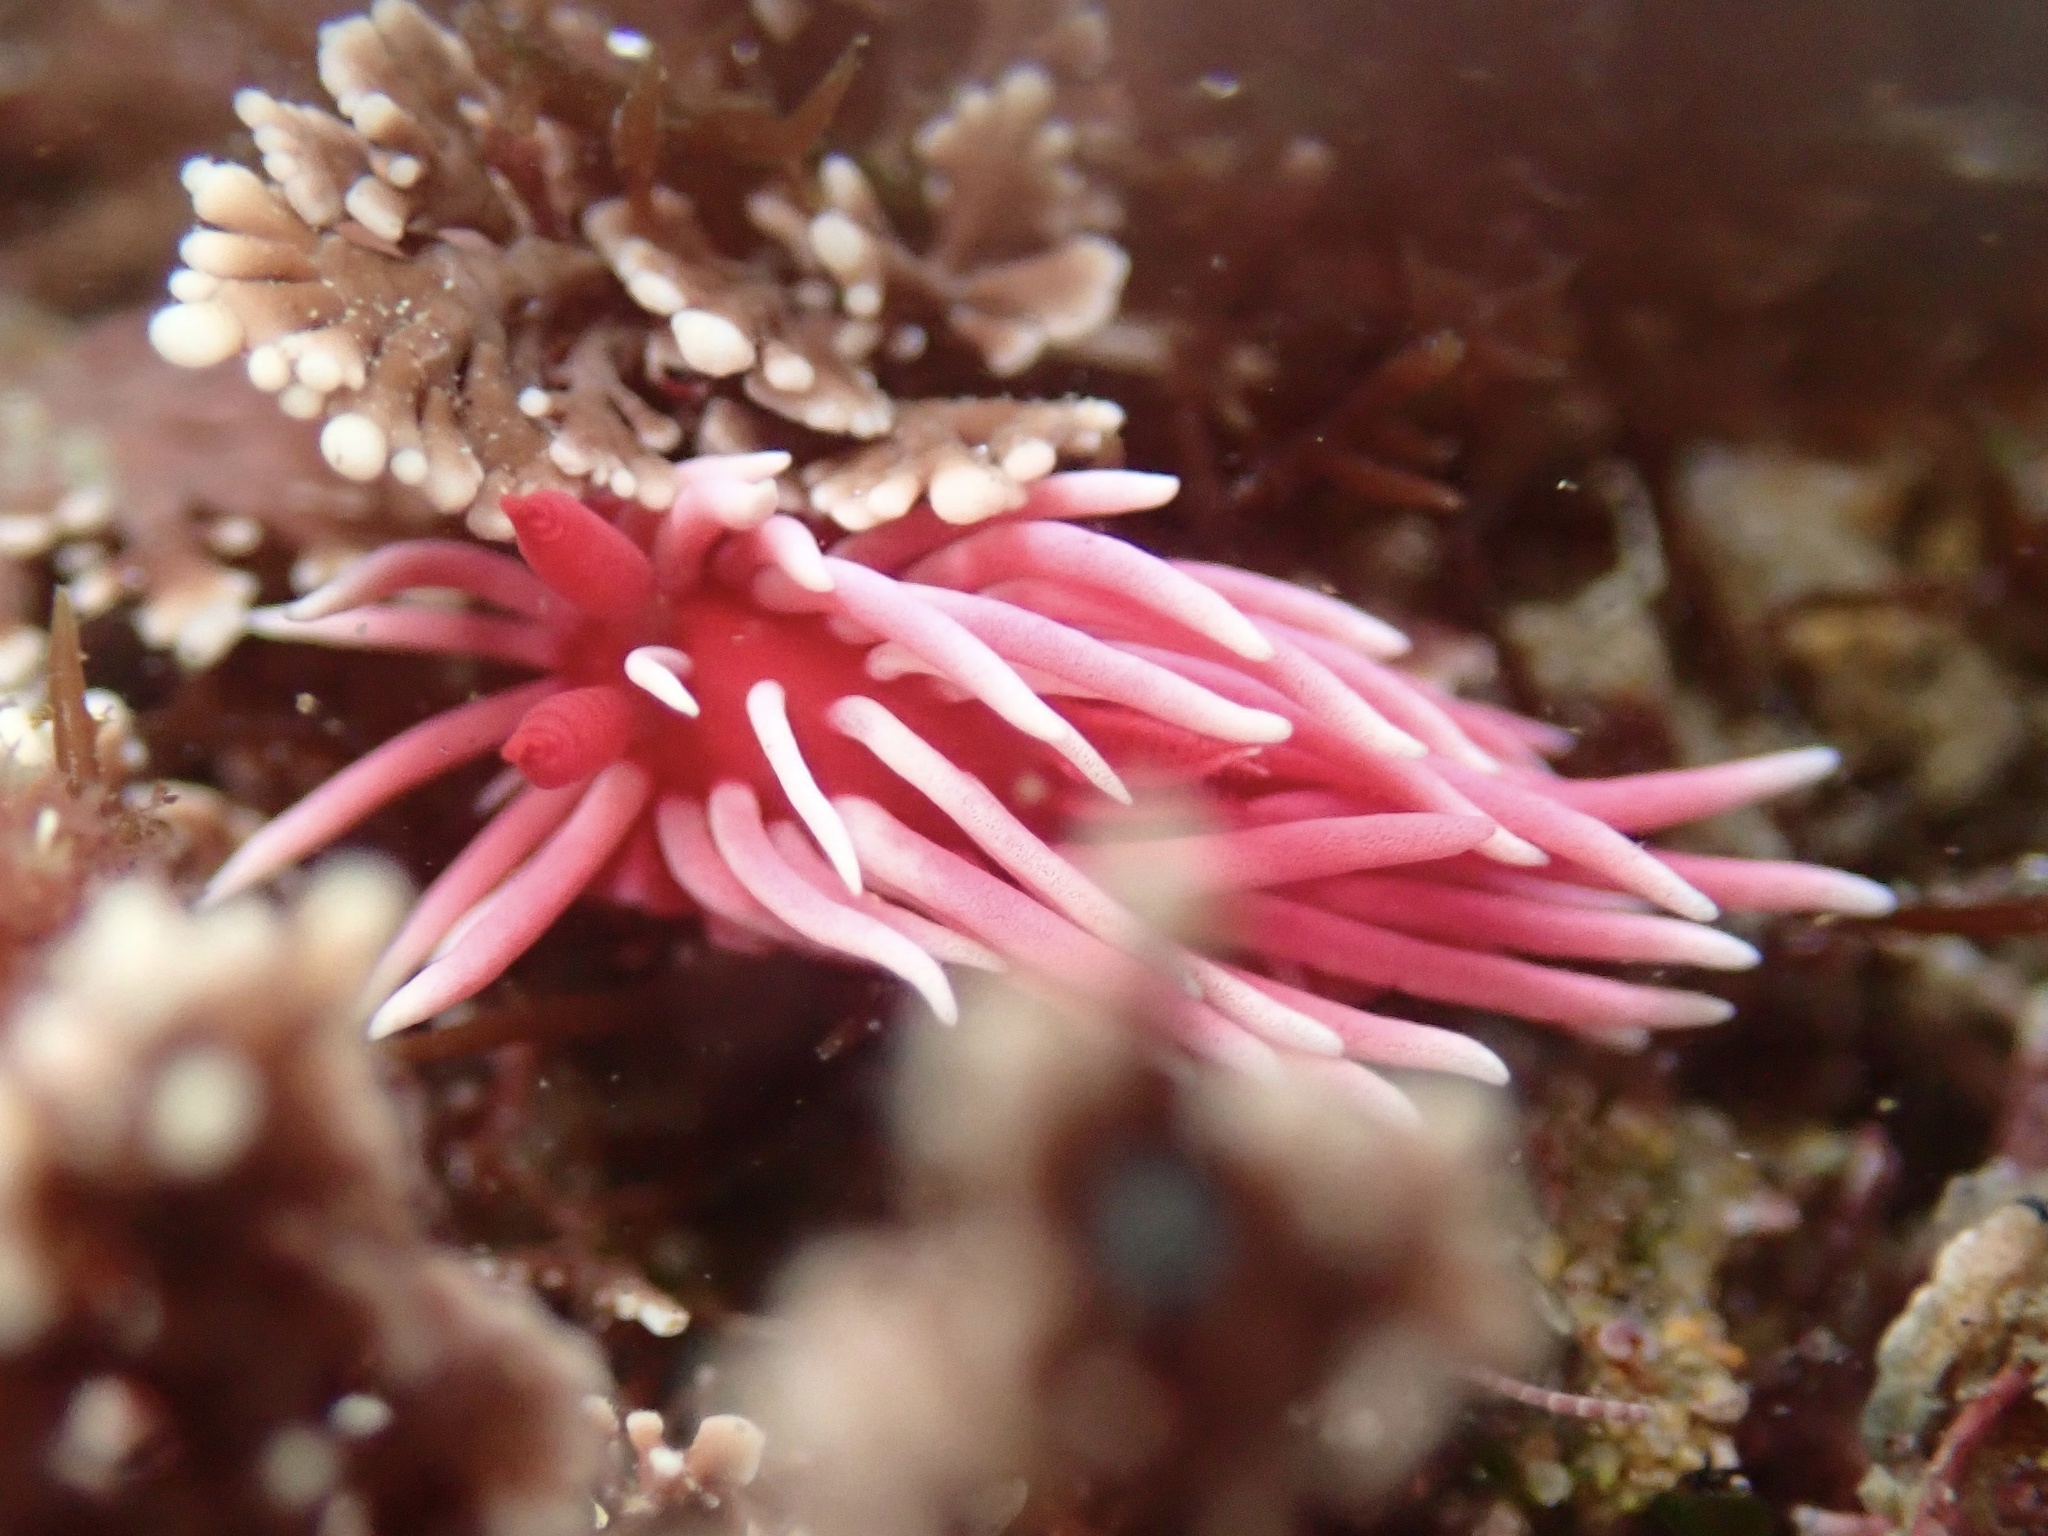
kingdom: Animalia
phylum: Mollusca
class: Gastropoda
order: Nudibranchia
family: Goniodorididae
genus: Okenia
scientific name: Okenia
